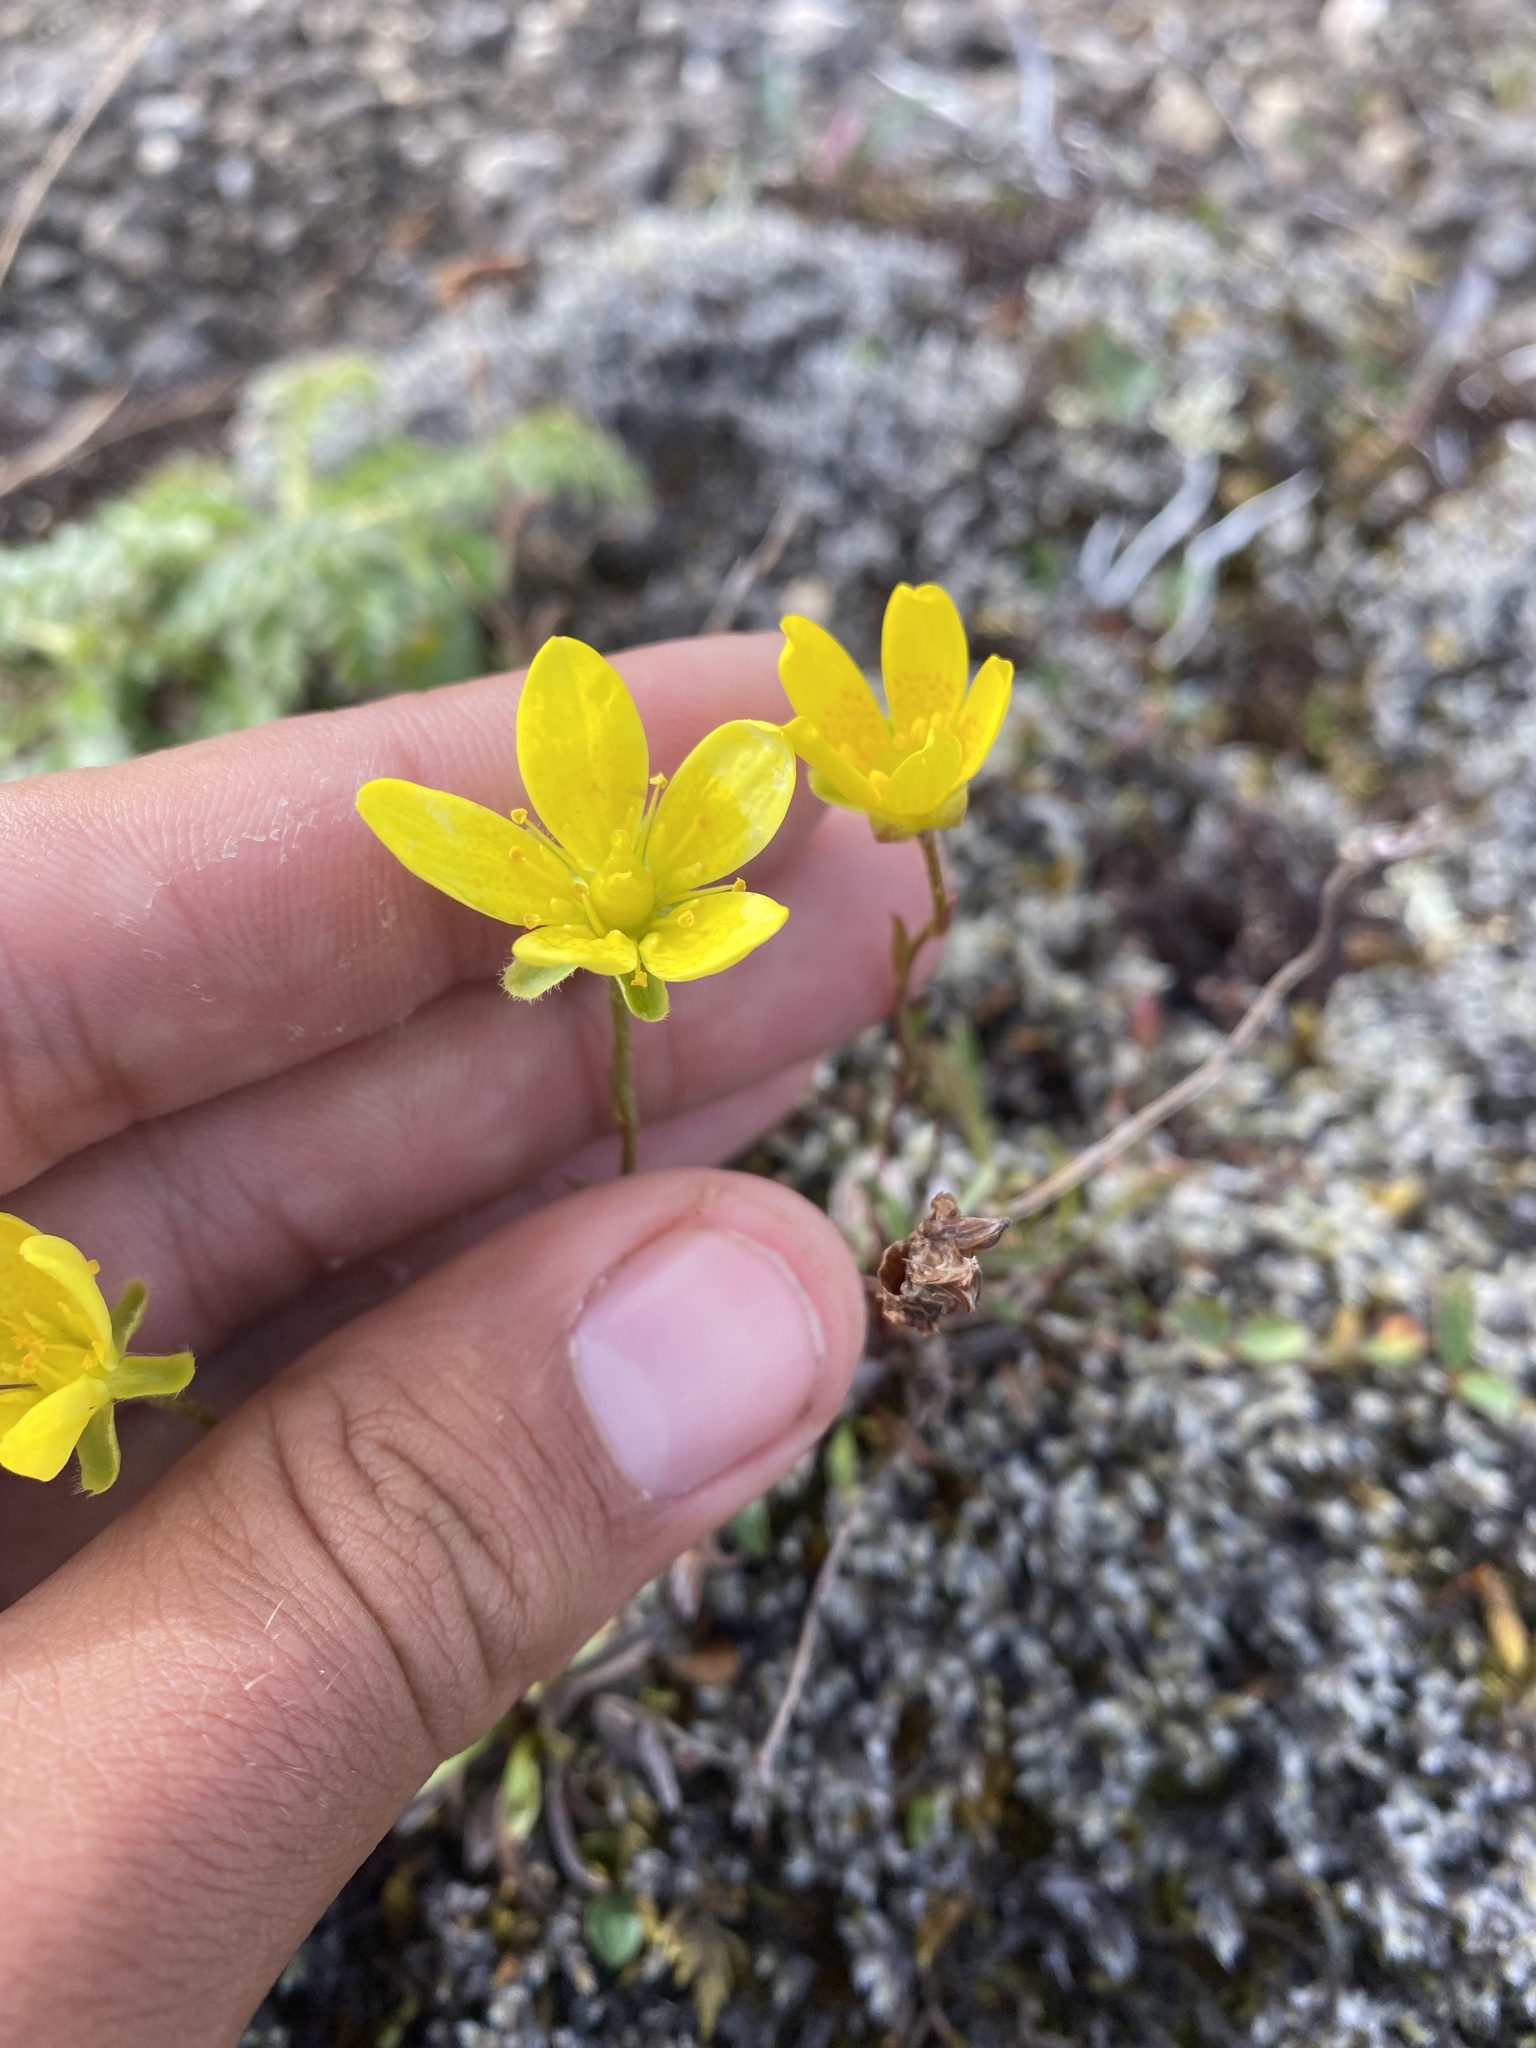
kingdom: Plantae
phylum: Tracheophyta
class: Magnoliopsida
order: Saxifragales
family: Saxifragaceae
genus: Saxifraga
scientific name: Saxifraga hirculus
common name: Yellow marsh saxifrage
